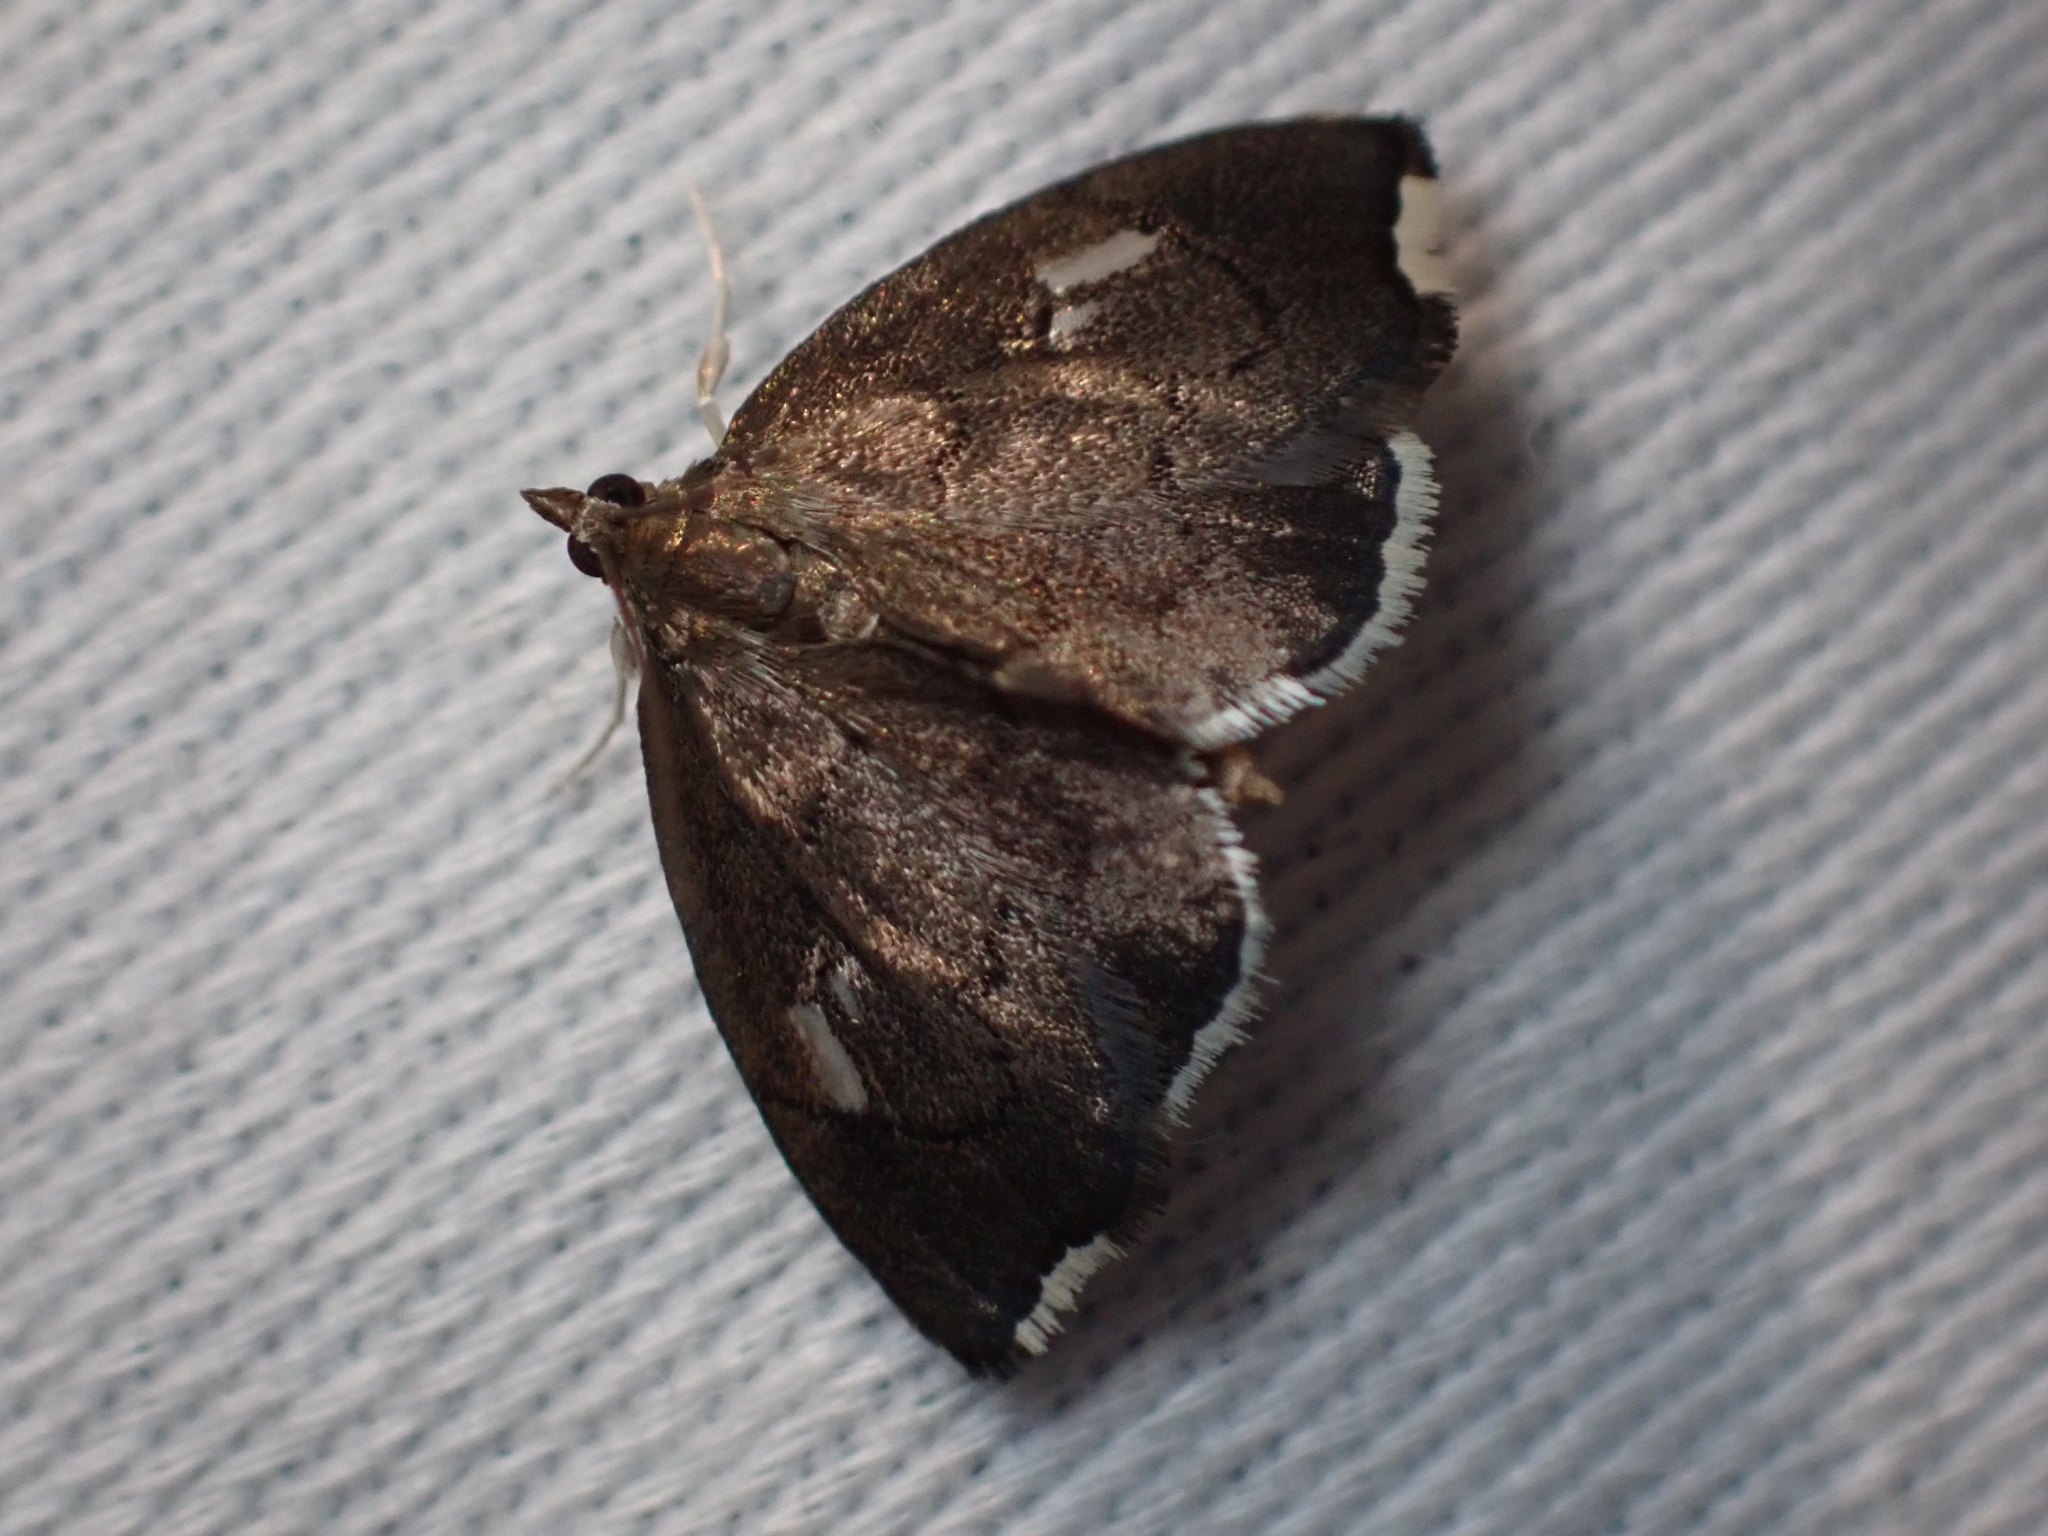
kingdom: Animalia
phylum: Arthropoda
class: Insecta
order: Lepidoptera
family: Crambidae
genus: Perispasta
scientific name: Perispasta caeculalis
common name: Titian peale's moth
